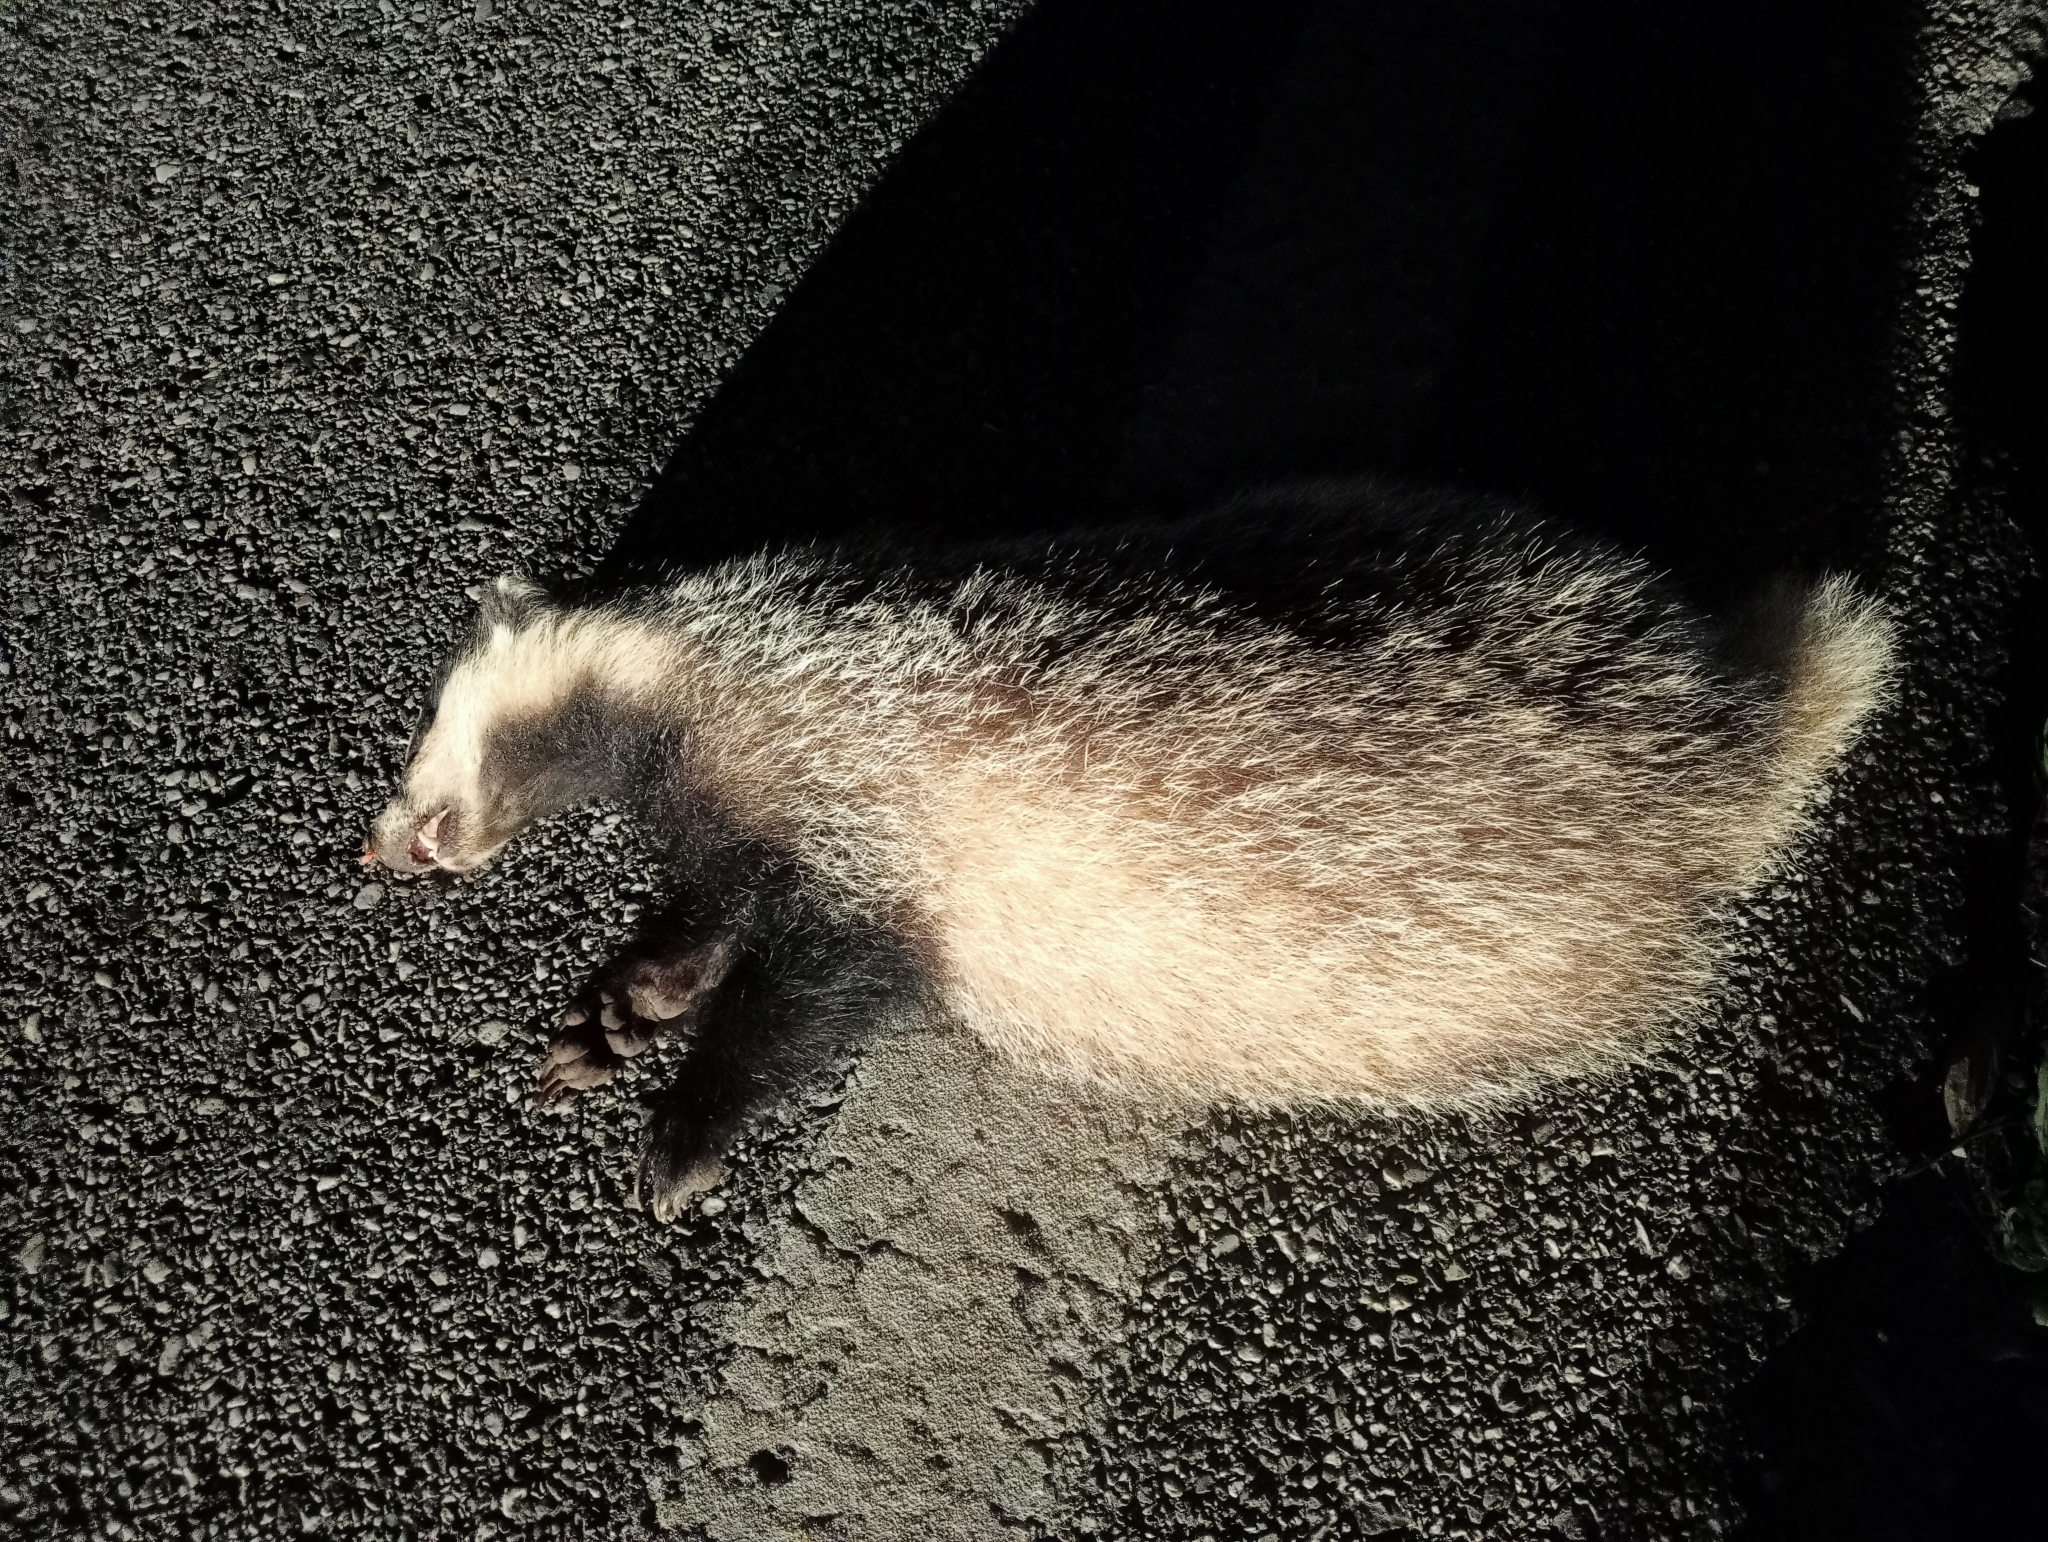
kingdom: Animalia
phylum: Chordata
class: Mammalia
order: Carnivora
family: Mustelidae
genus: Meles
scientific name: Meles meles
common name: Eurasian badger
